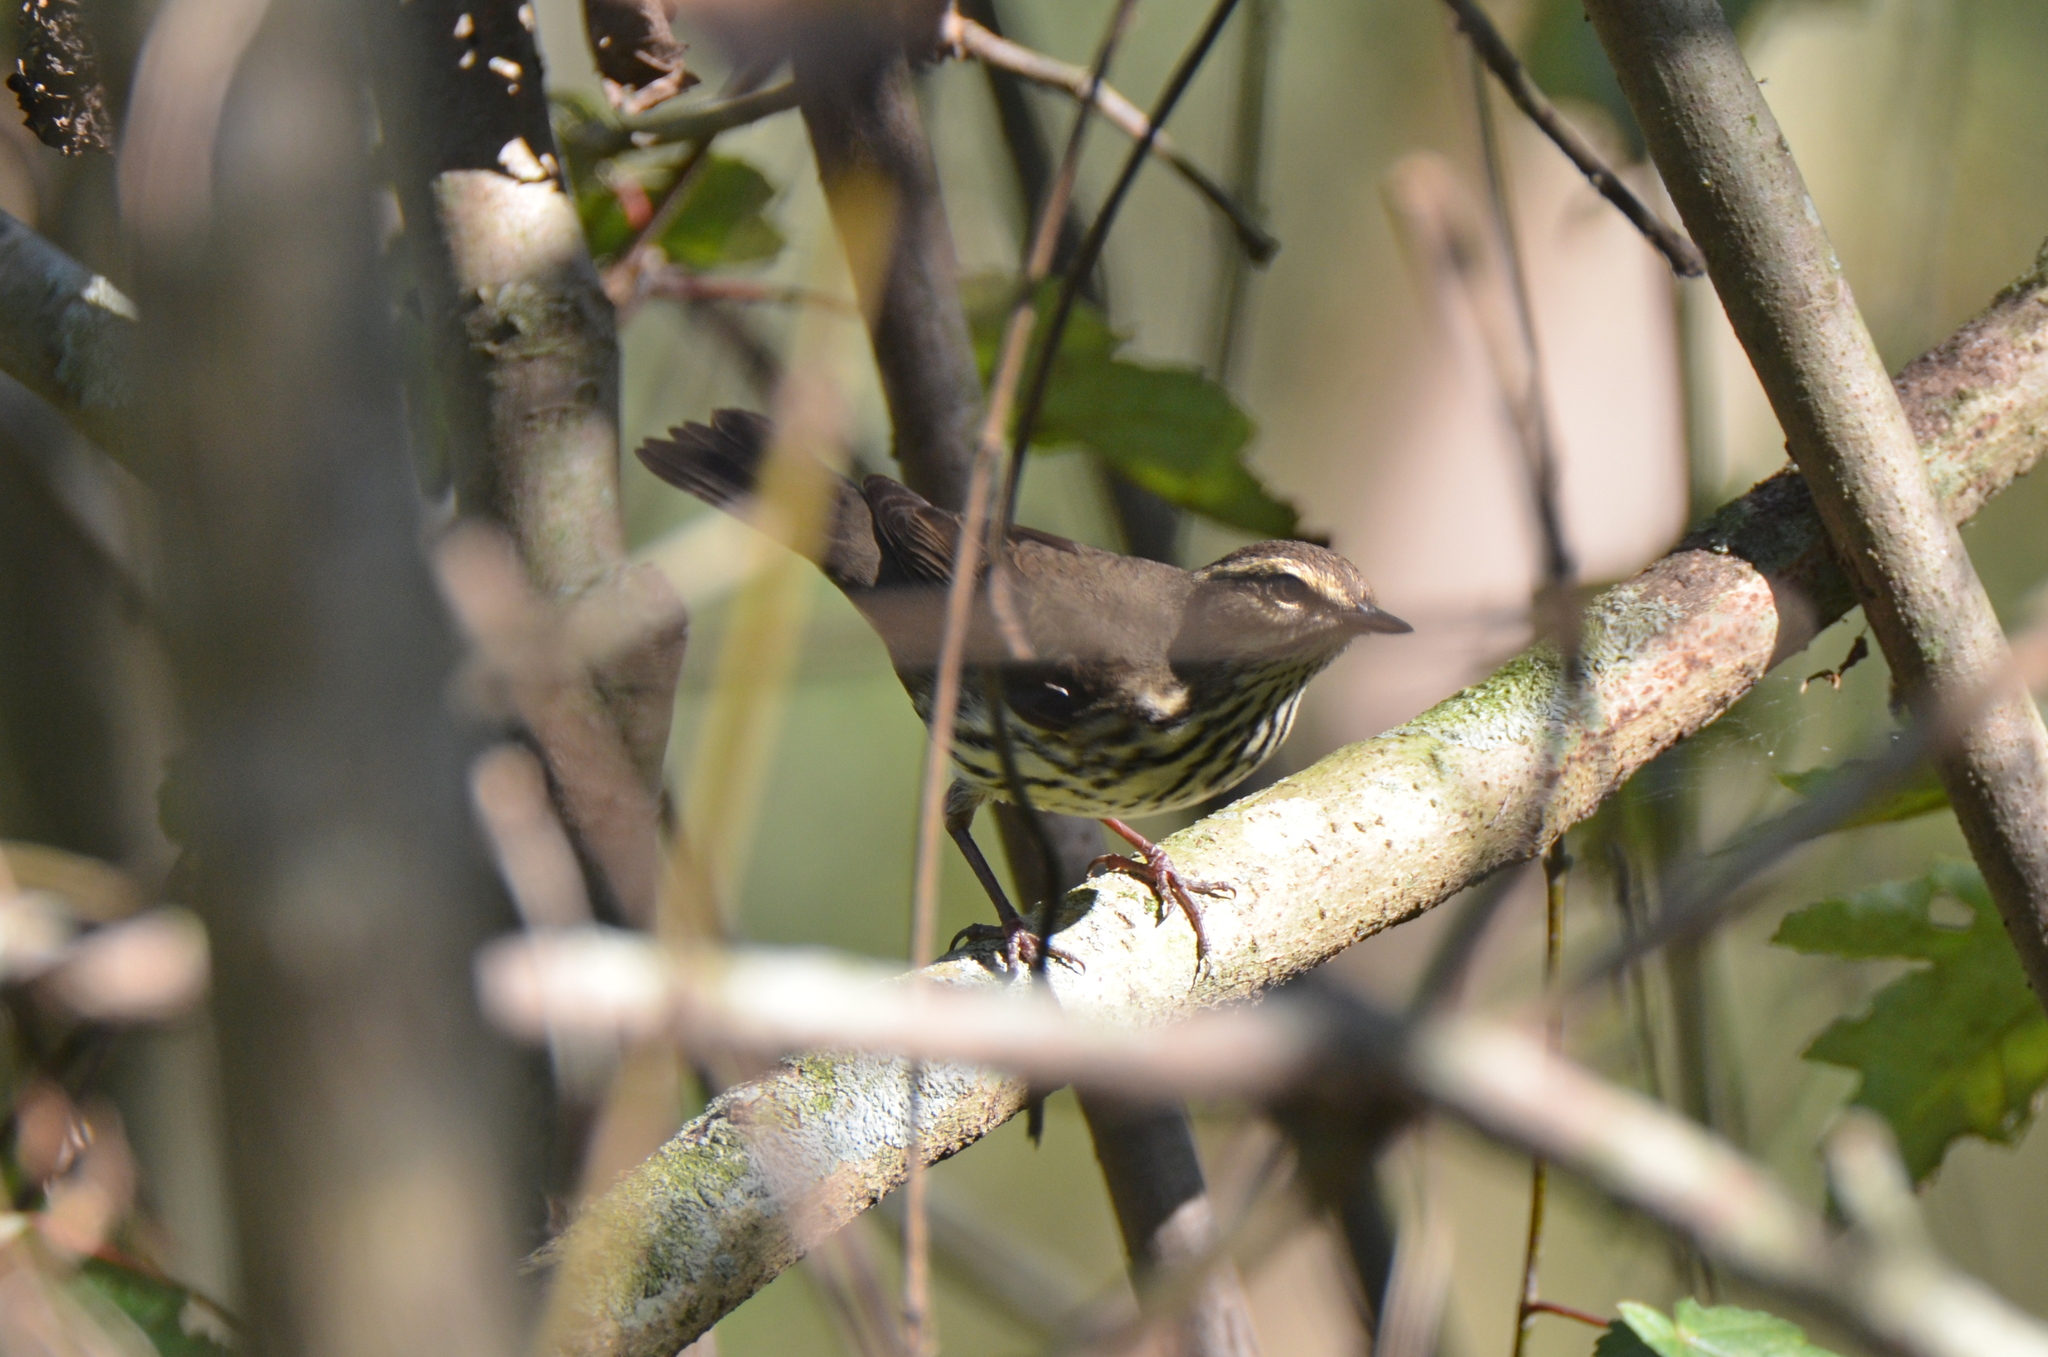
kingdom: Animalia
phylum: Chordata
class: Aves
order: Passeriformes
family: Parulidae
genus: Parkesia
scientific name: Parkesia noveboracensis
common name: Northern waterthrush
